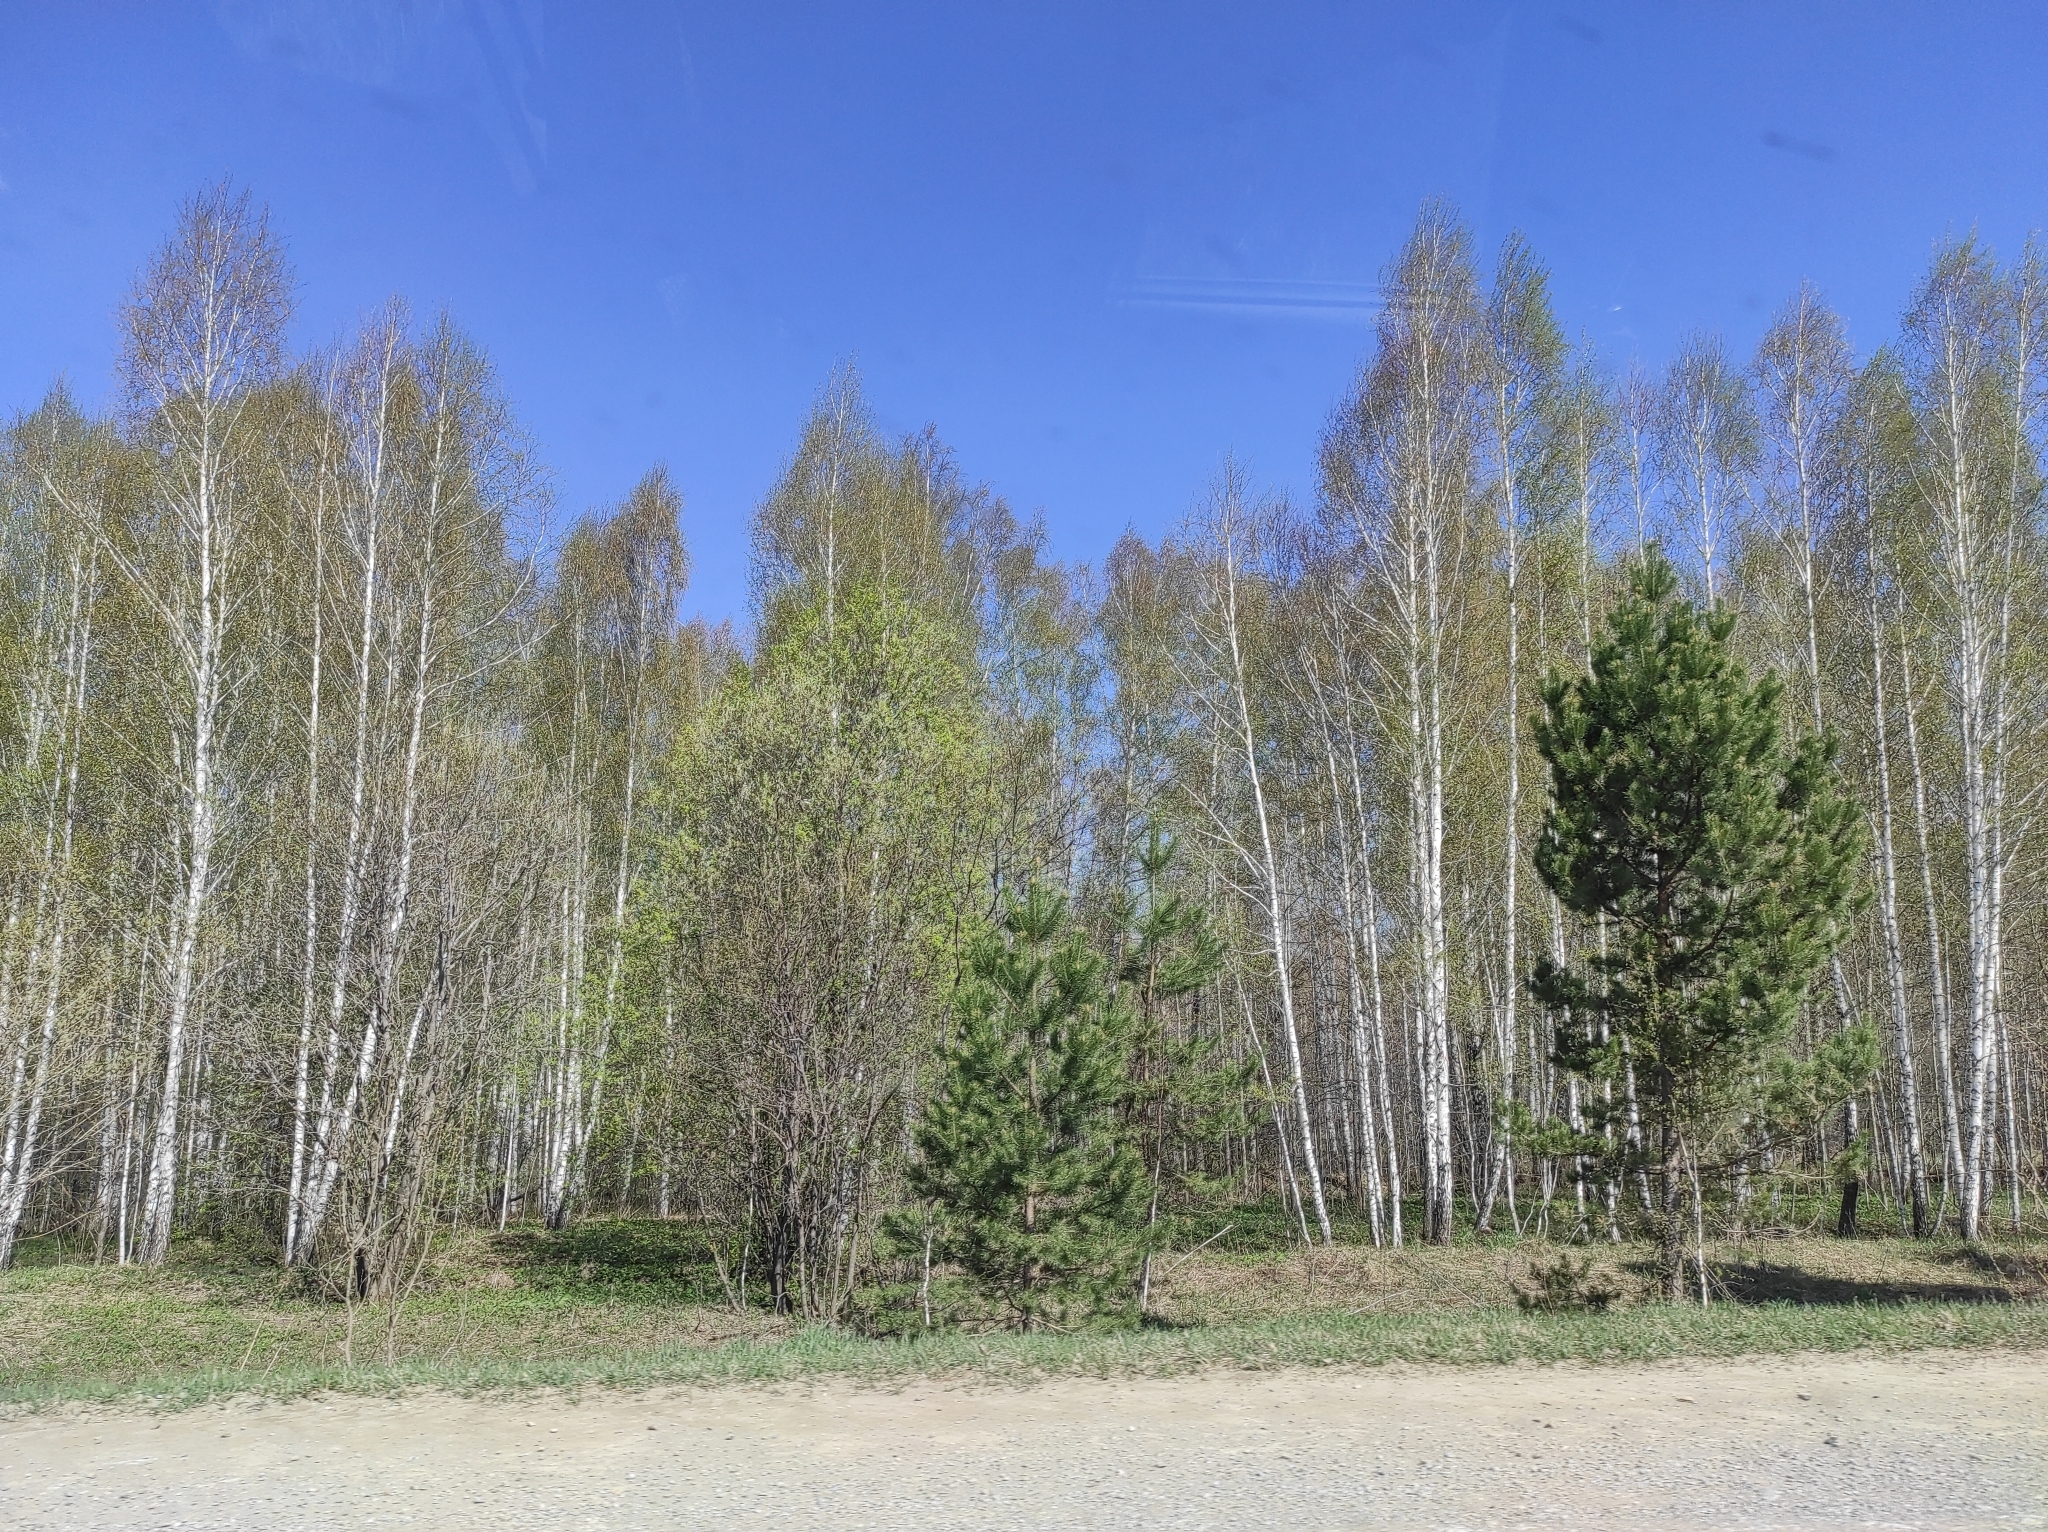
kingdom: Plantae
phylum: Tracheophyta
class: Pinopsida
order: Pinales
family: Pinaceae
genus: Pinus
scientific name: Pinus sylvestris
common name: Scots pine
